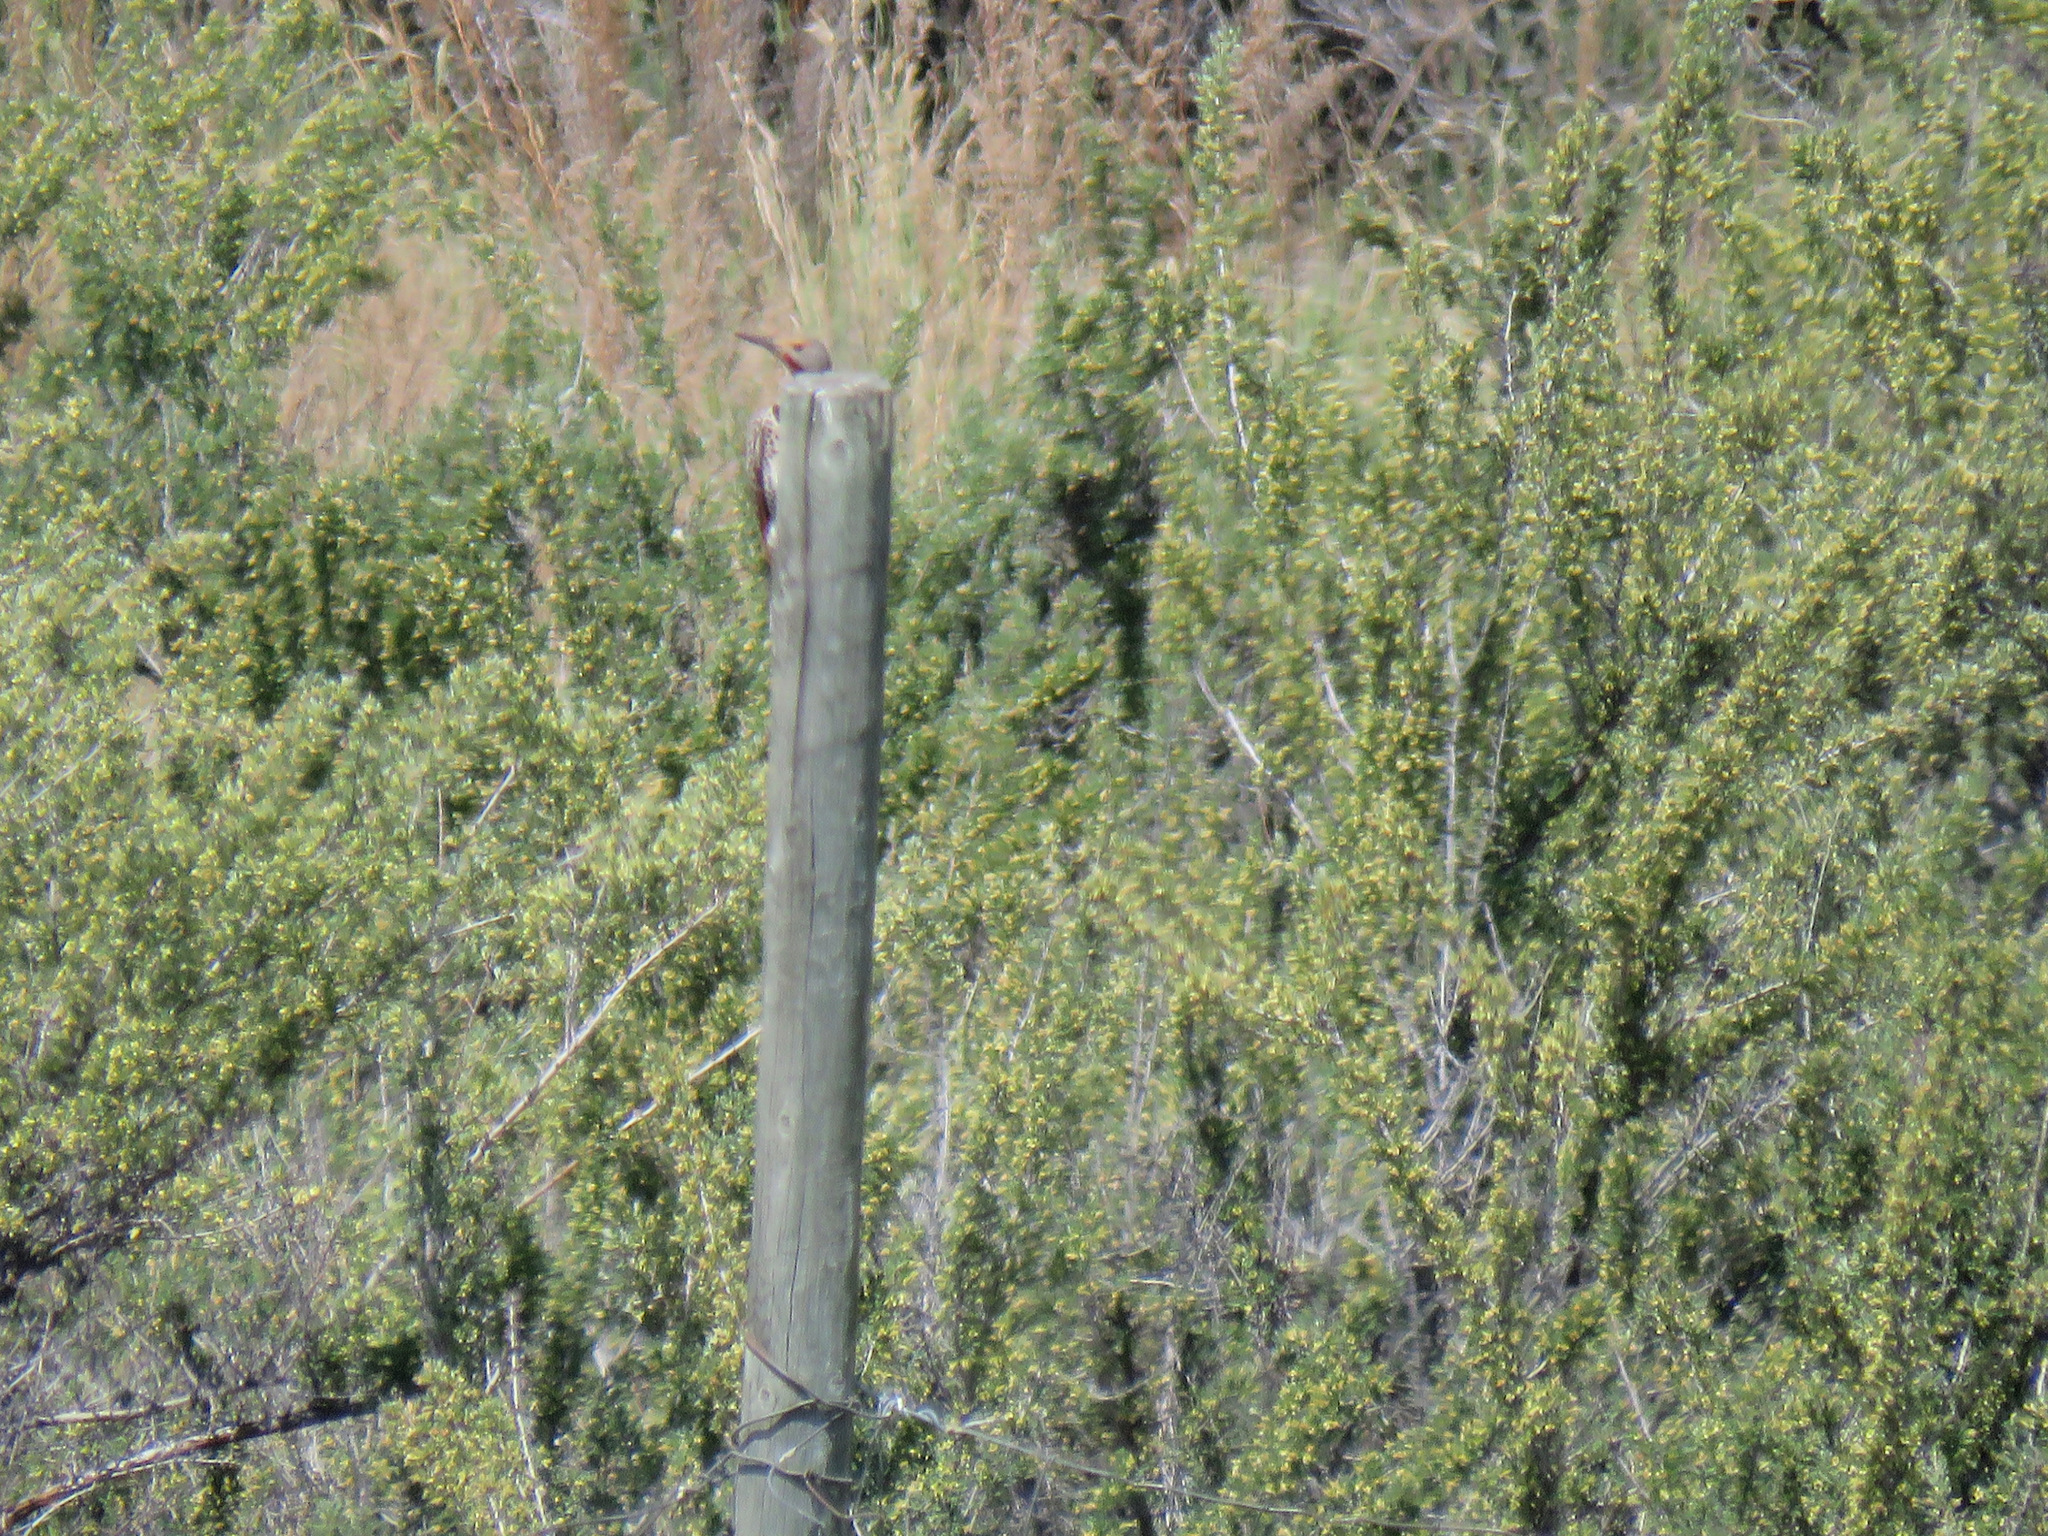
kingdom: Animalia
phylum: Chordata
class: Aves
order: Piciformes
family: Picidae
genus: Colaptes
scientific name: Colaptes auratus
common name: Northern flicker
